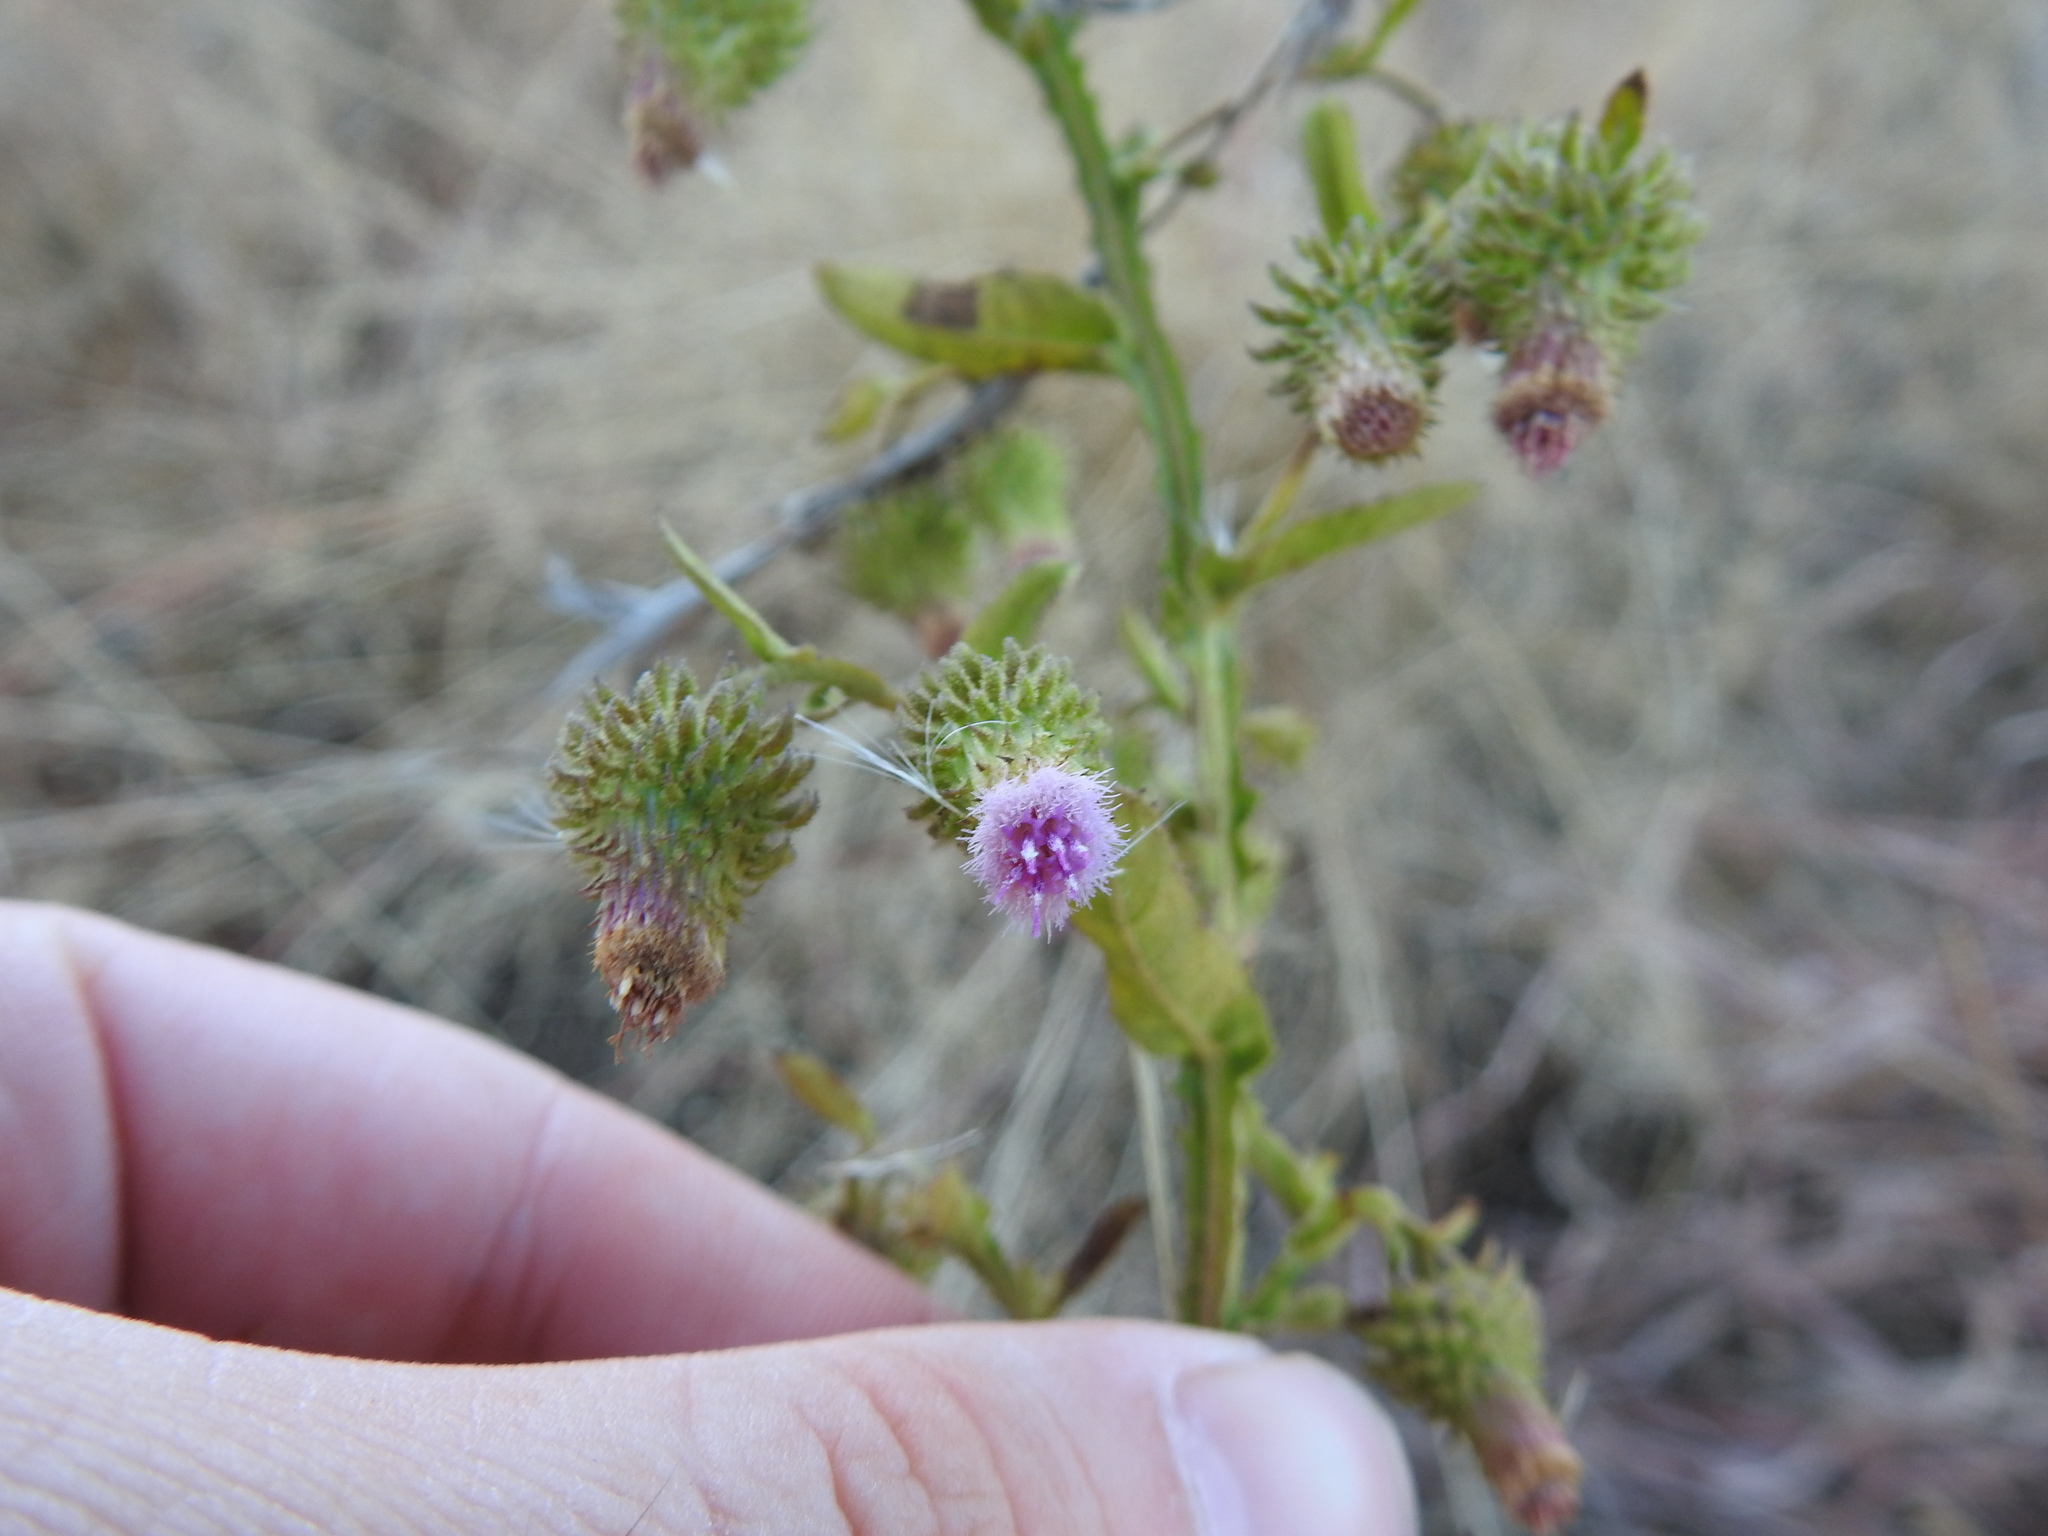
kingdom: Plantae
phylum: Tracheophyta
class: Magnoliopsida
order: Asterales
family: Asteraceae
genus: Laggera
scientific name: Laggera crispata
